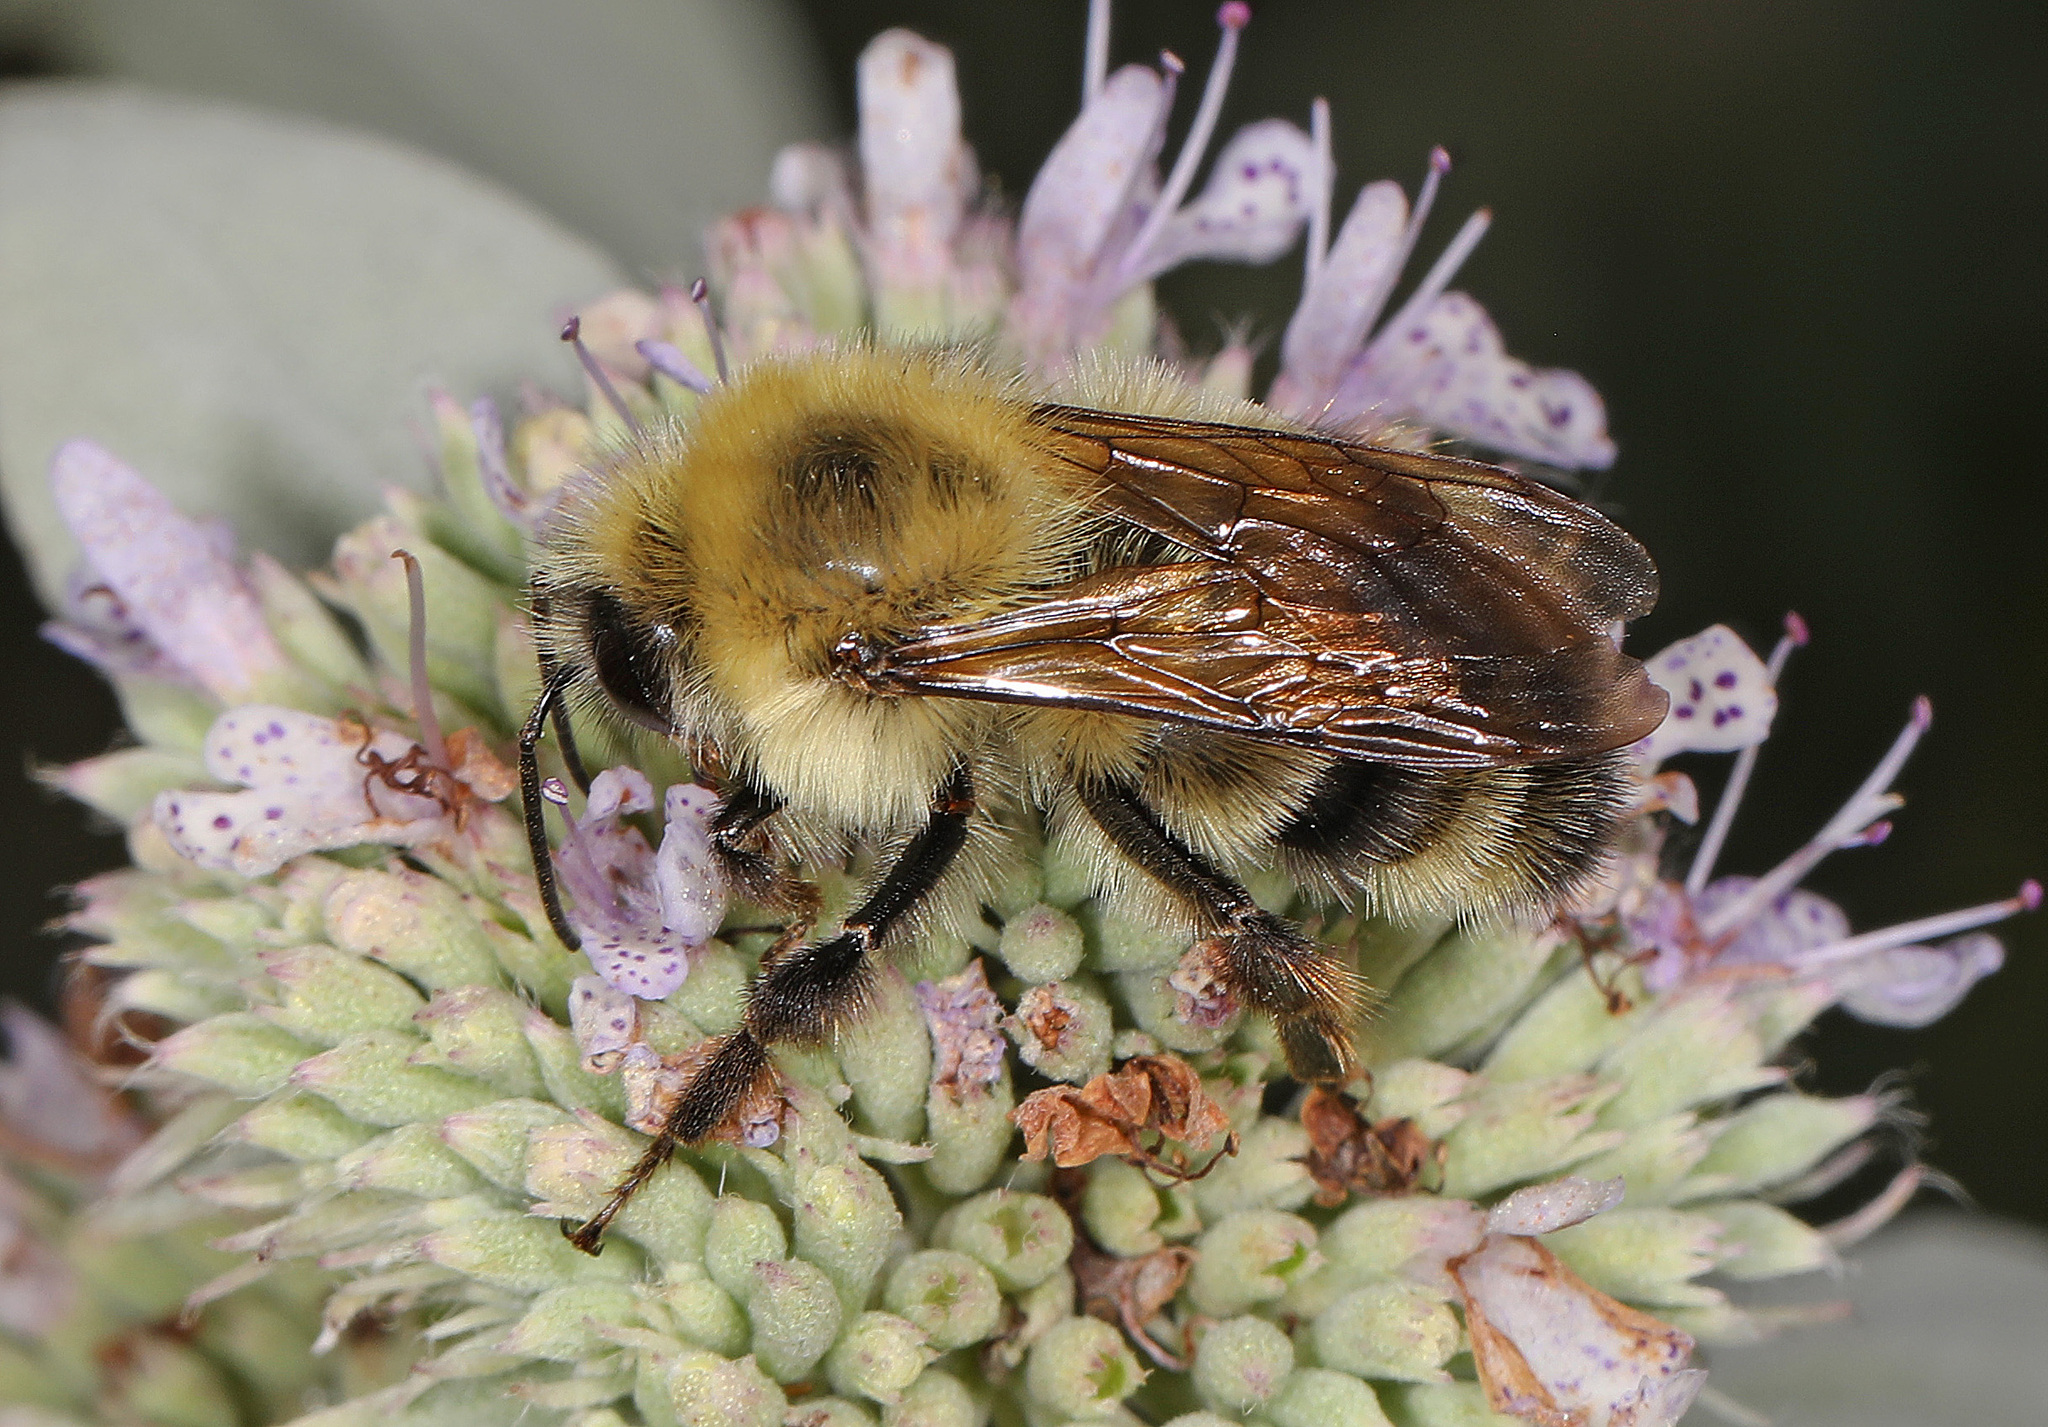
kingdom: Animalia
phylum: Arthropoda
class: Insecta
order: Hymenoptera
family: Apidae
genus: Bombus
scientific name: Bombus bimaculatus
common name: Two-spotted bumble bee
